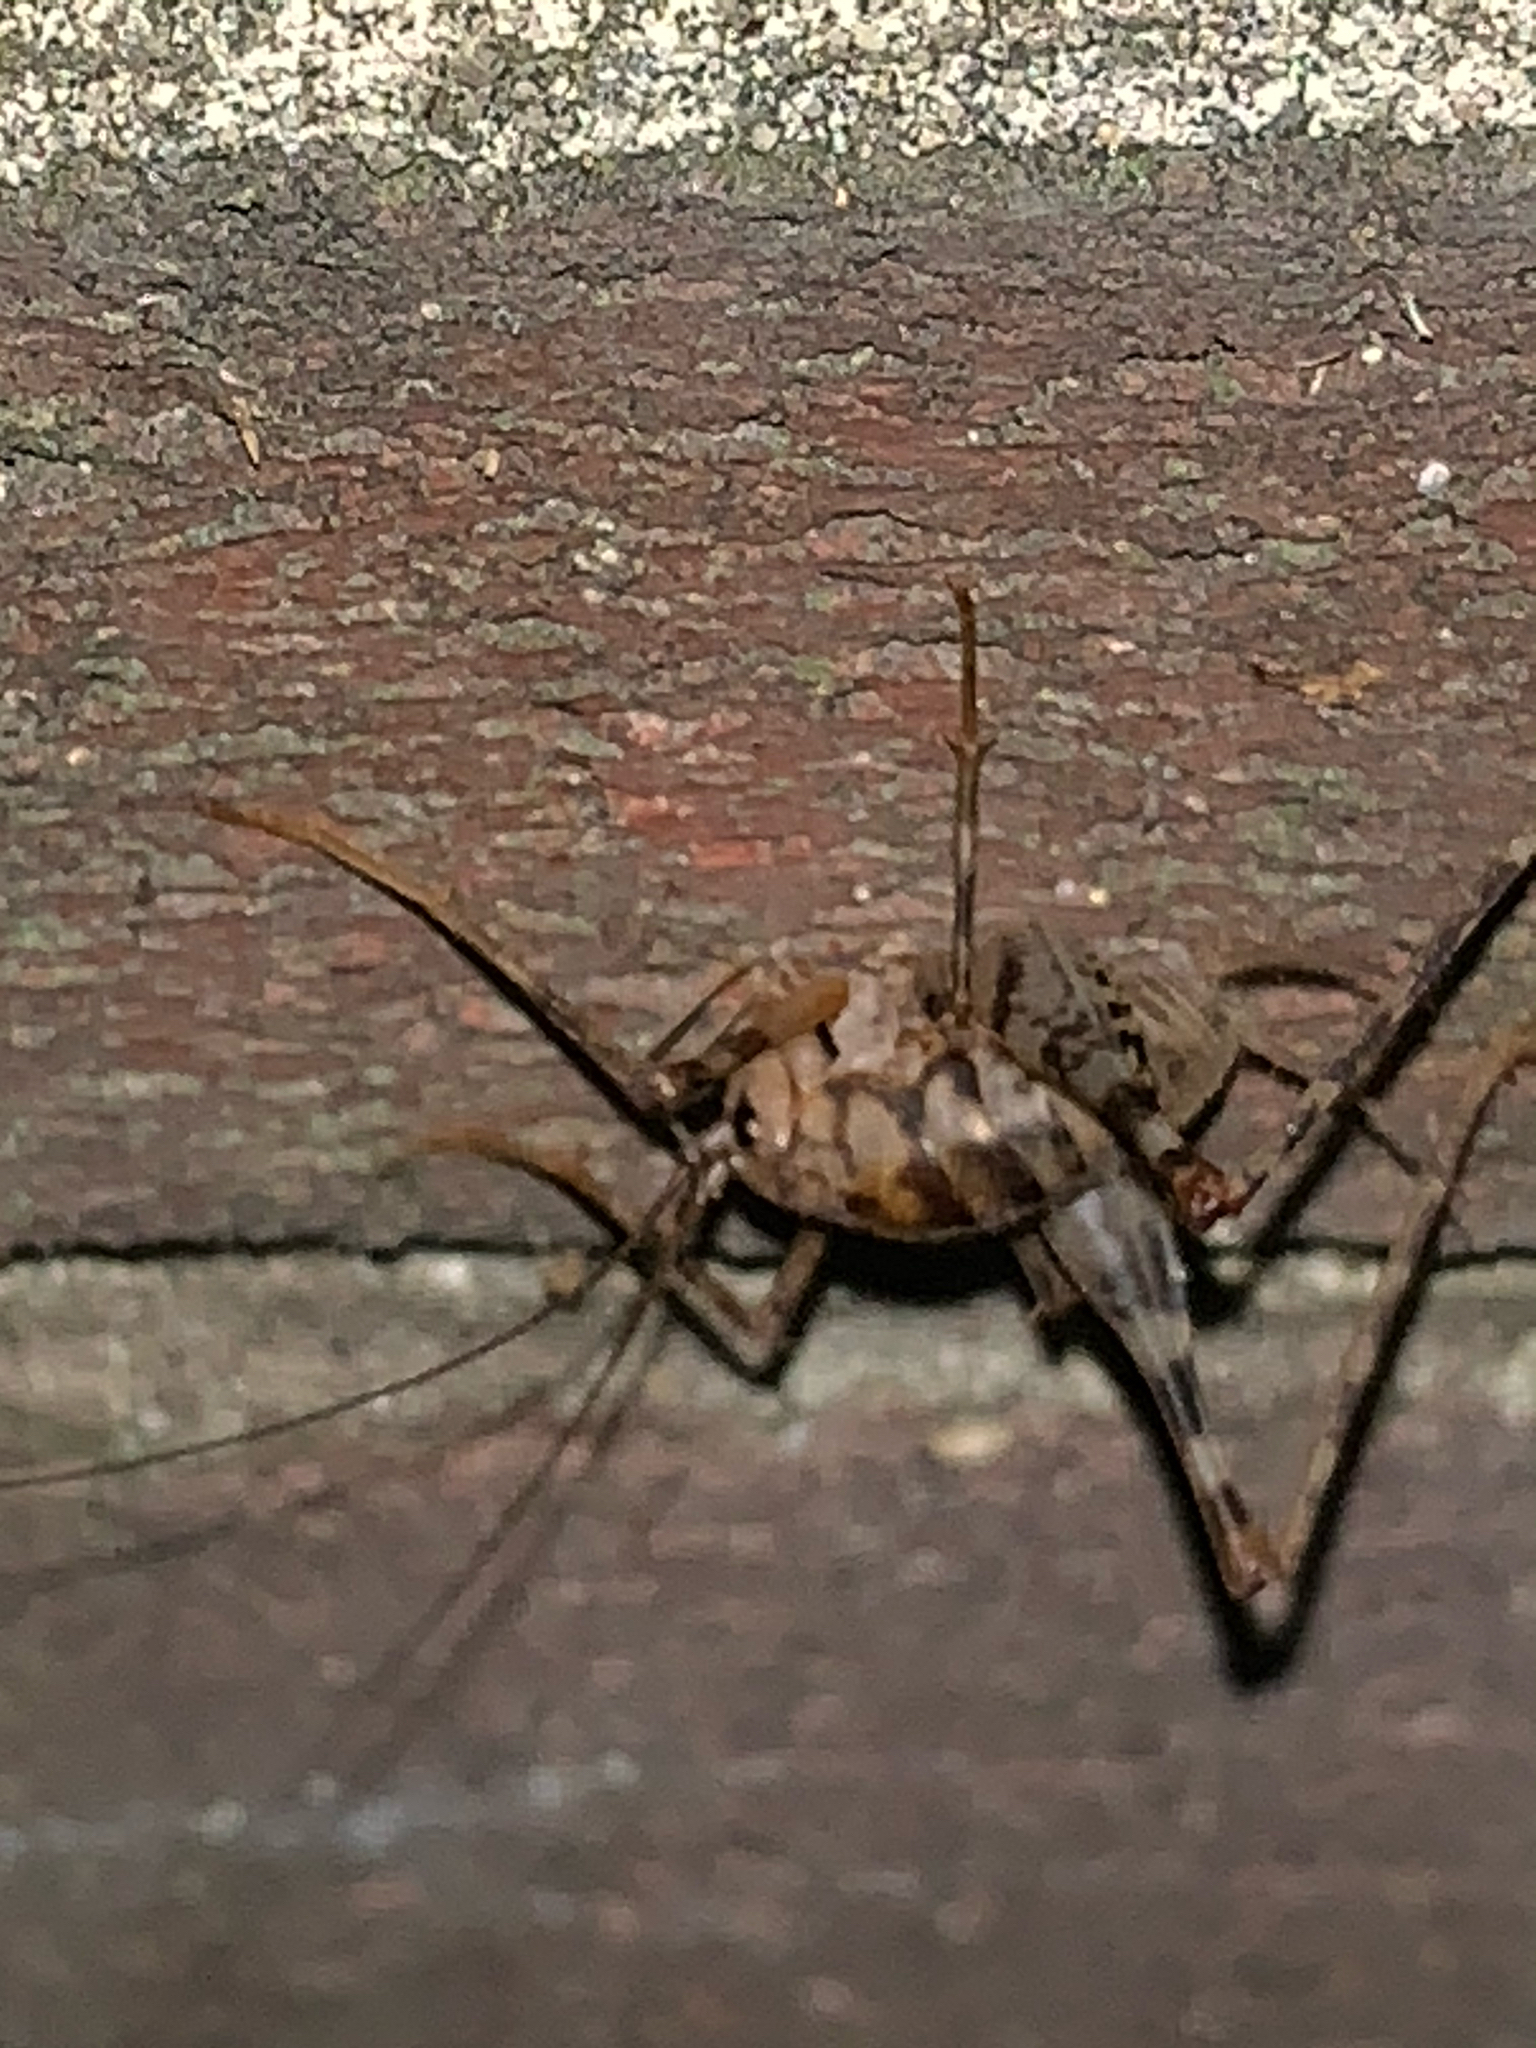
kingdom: Animalia
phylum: Arthropoda
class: Insecta
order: Orthoptera
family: Rhaphidophoridae
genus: Tachycines
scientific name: Tachycines asynamorus
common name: Greenhouse camel cricket
